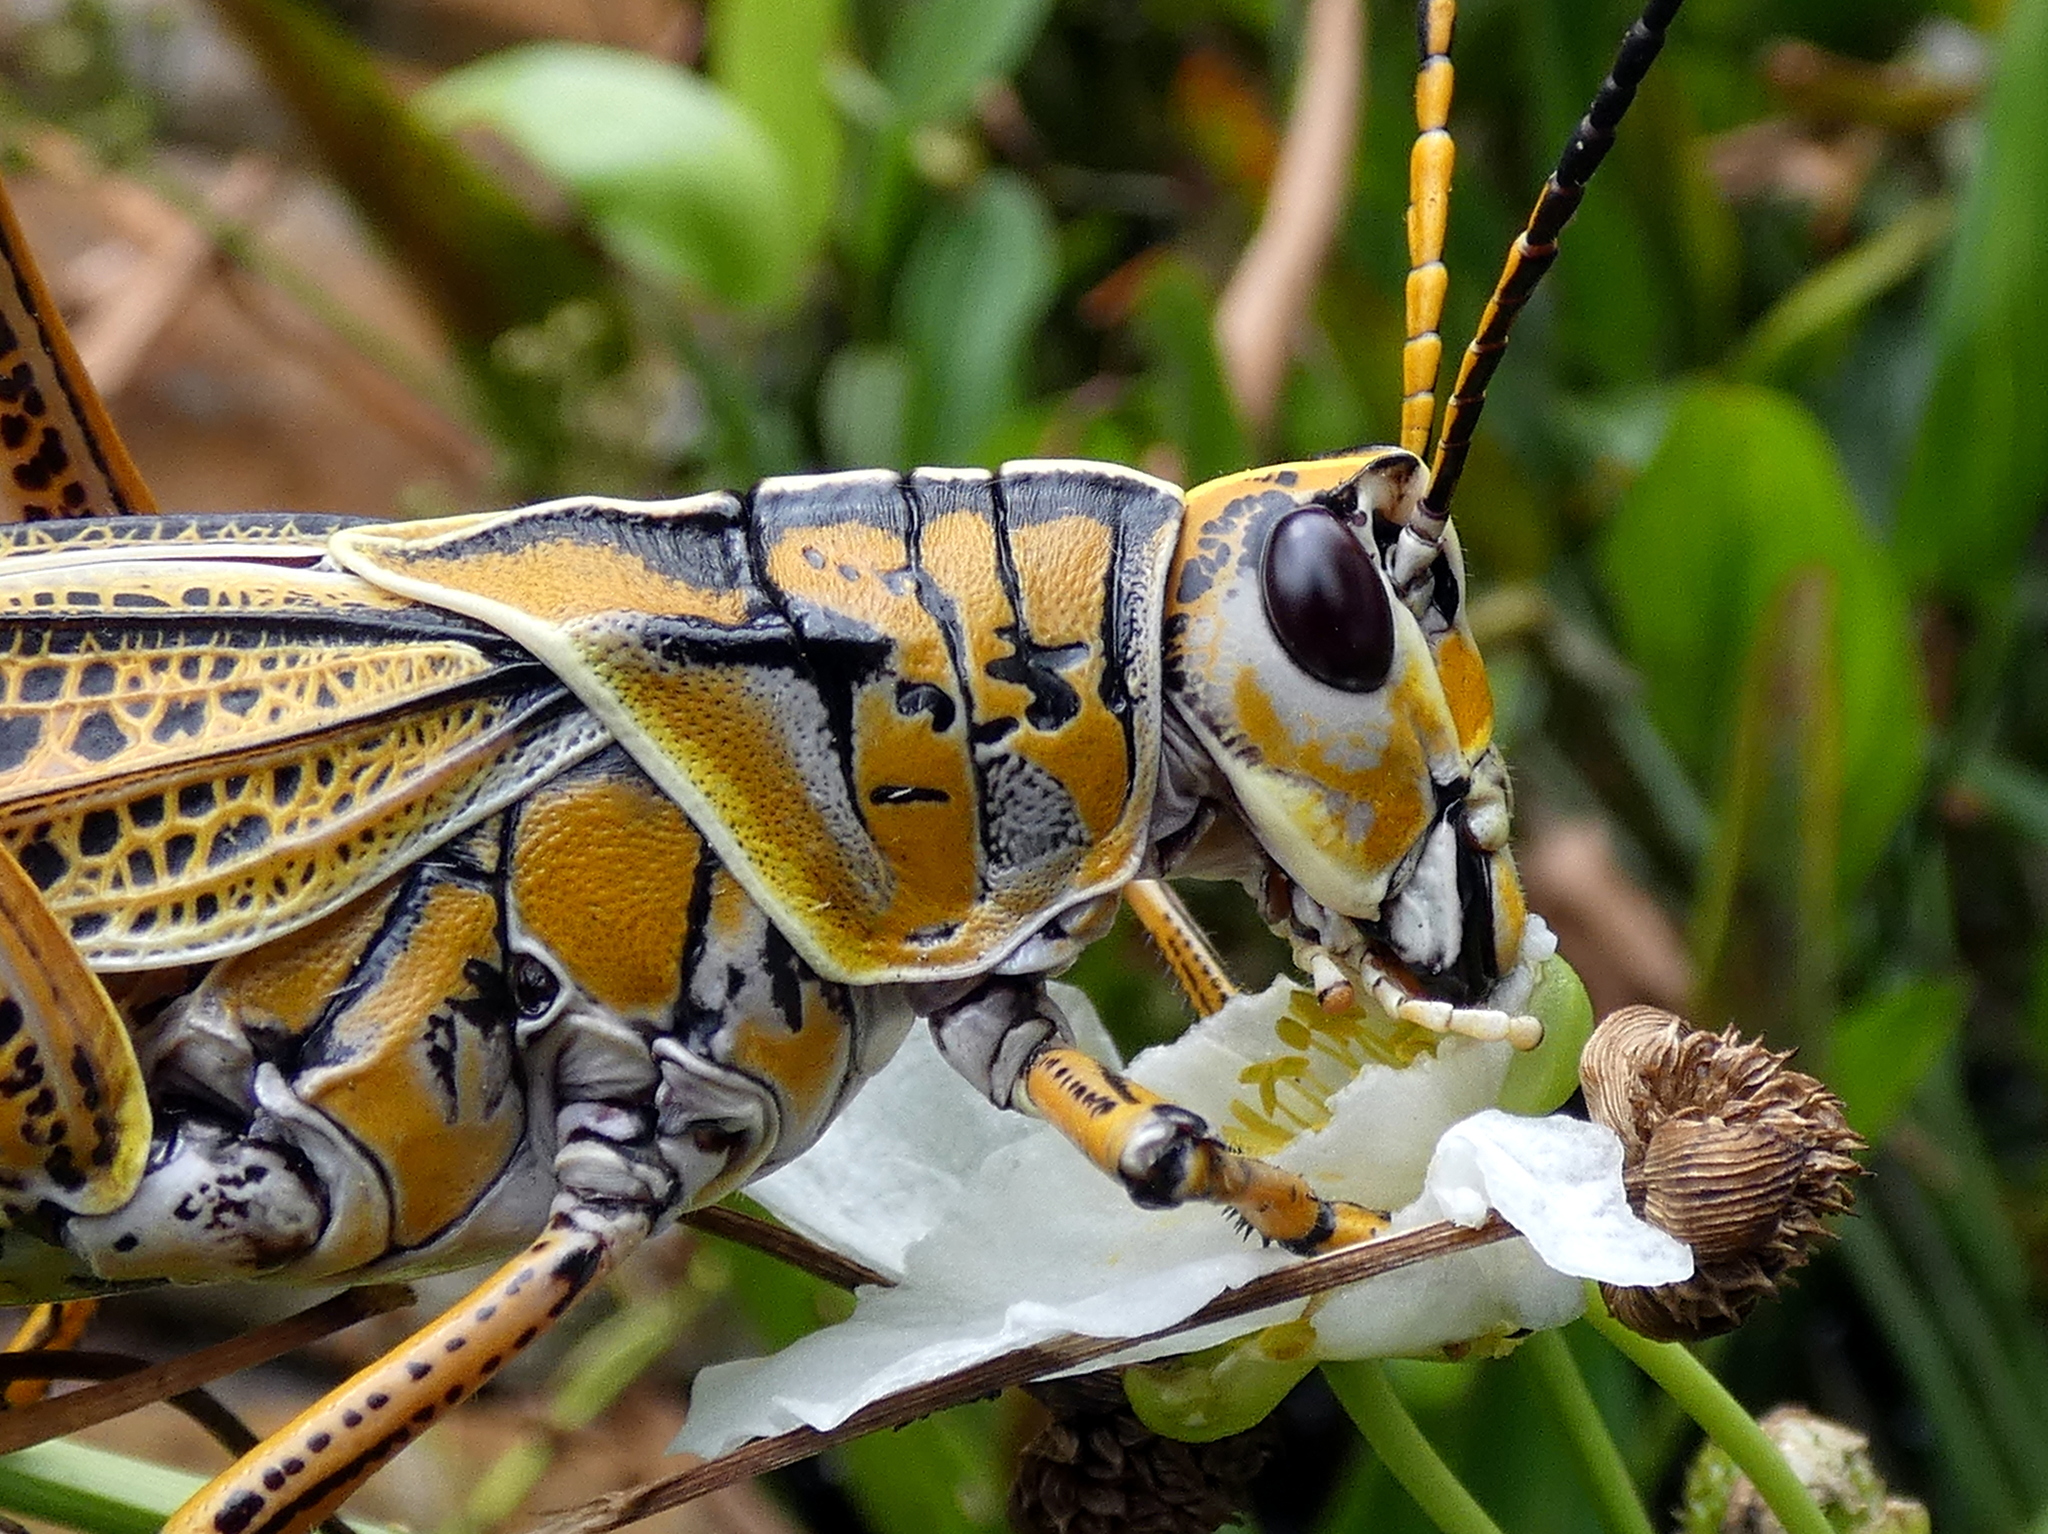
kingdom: Animalia
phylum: Arthropoda
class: Insecta
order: Orthoptera
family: Romaleidae
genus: Romalea
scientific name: Romalea microptera
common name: Eastern lubber grasshopper
